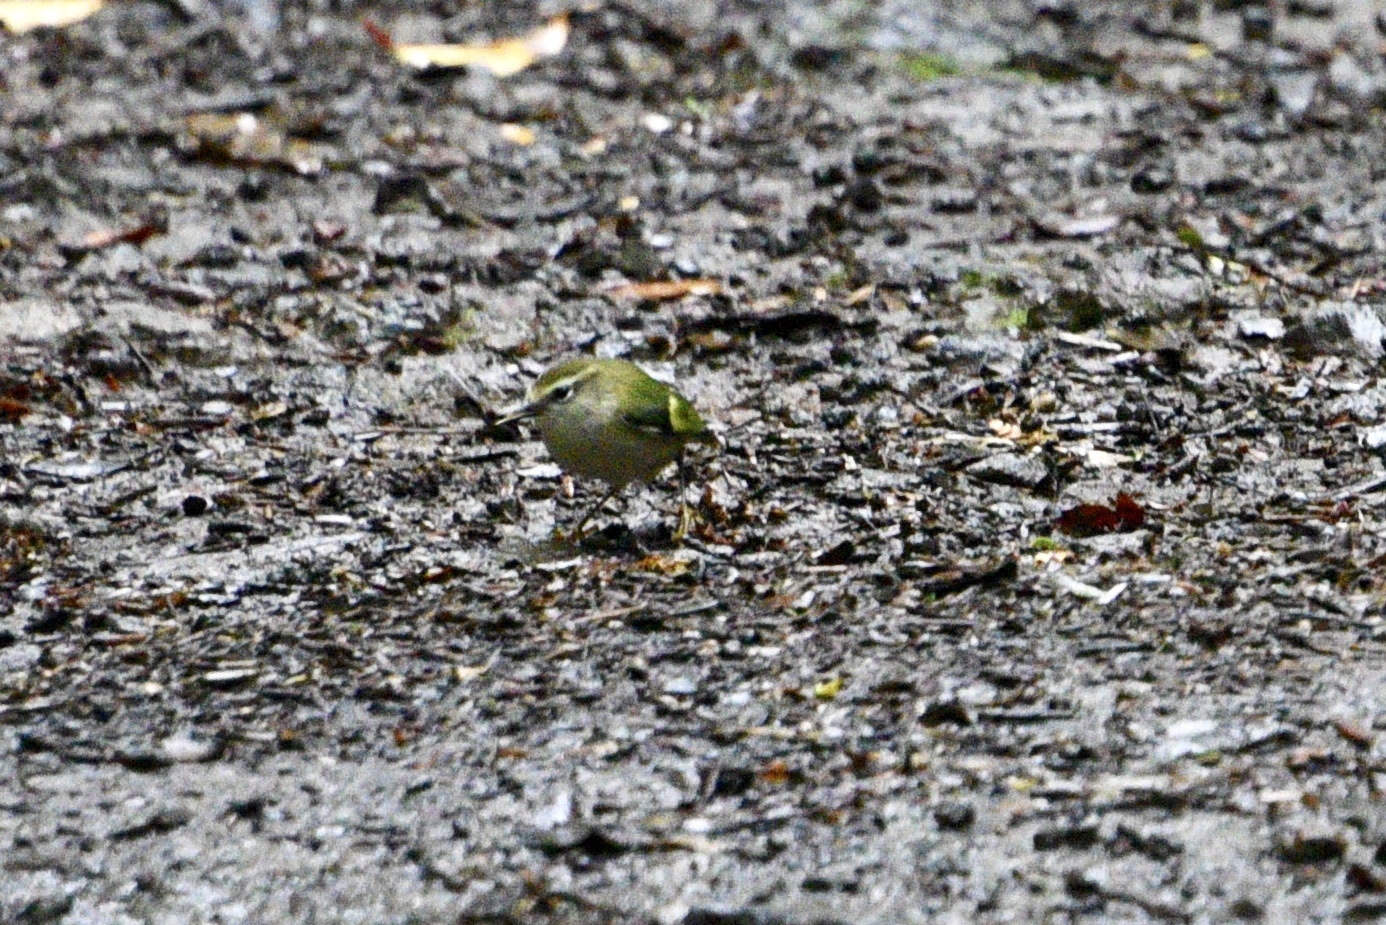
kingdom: Animalia
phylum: Chordata
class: Aves
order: Passeriformes
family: Acanthisittidae
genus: Acanthisitta
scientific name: Acanthisitta chloris
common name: Rifleman
